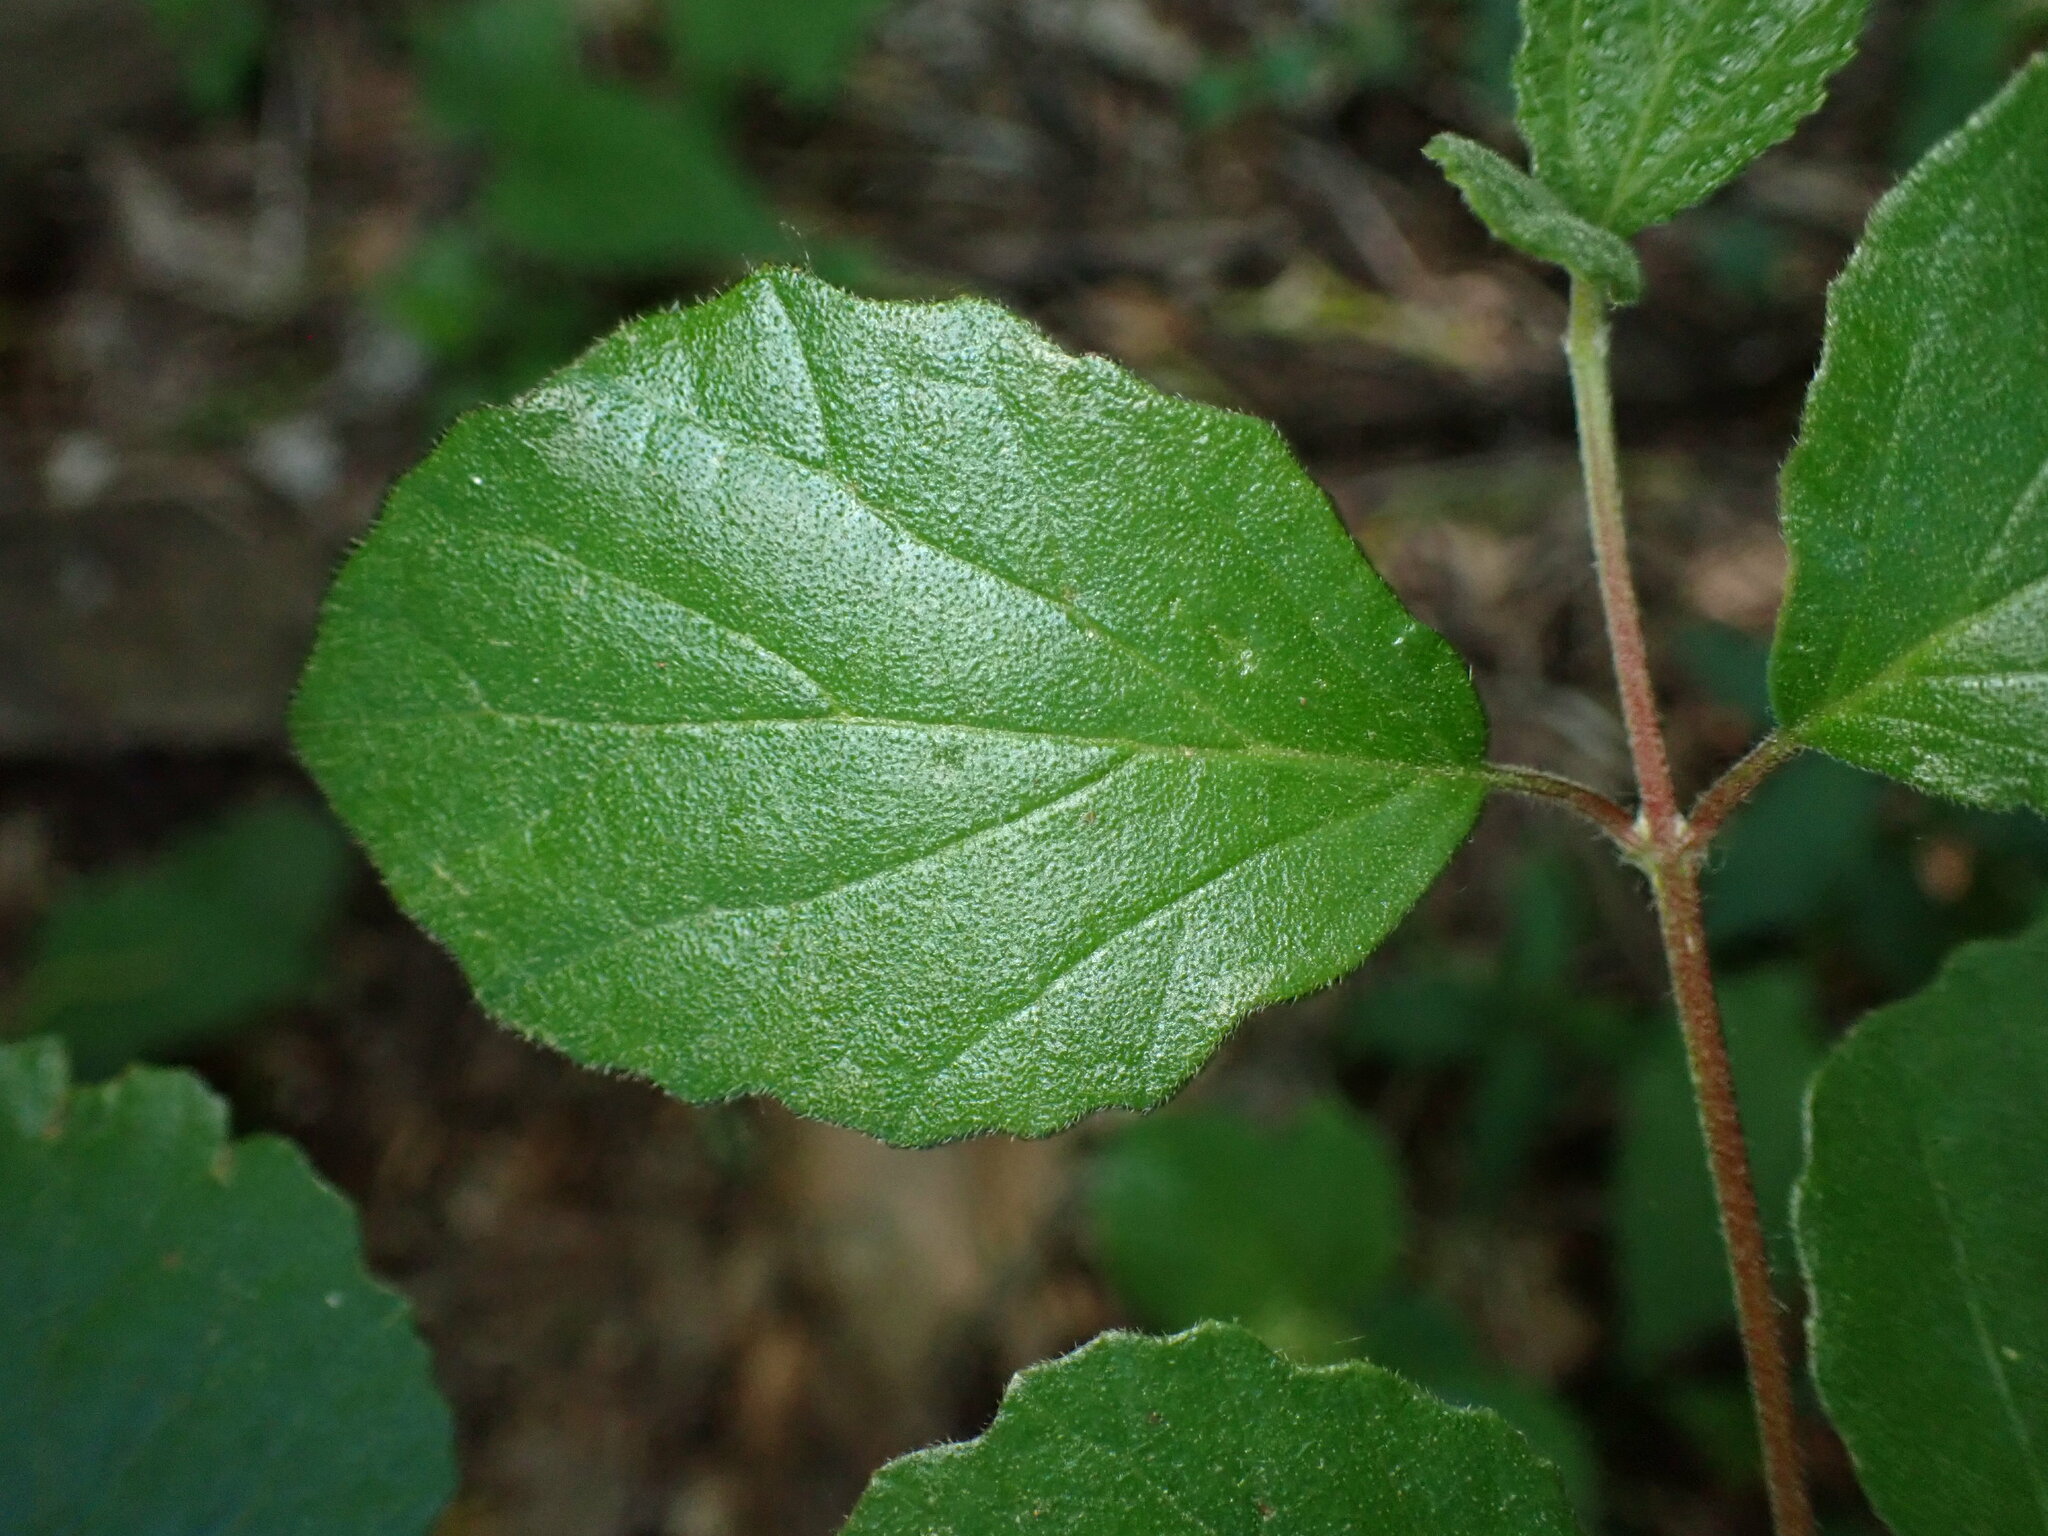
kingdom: Plantae
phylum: Tracheophyta
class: Magnoliopsida
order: Dipsacales
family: Viburnaceae
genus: Viburnum
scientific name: Viburnum dilatatum
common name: Linden arrowwood
